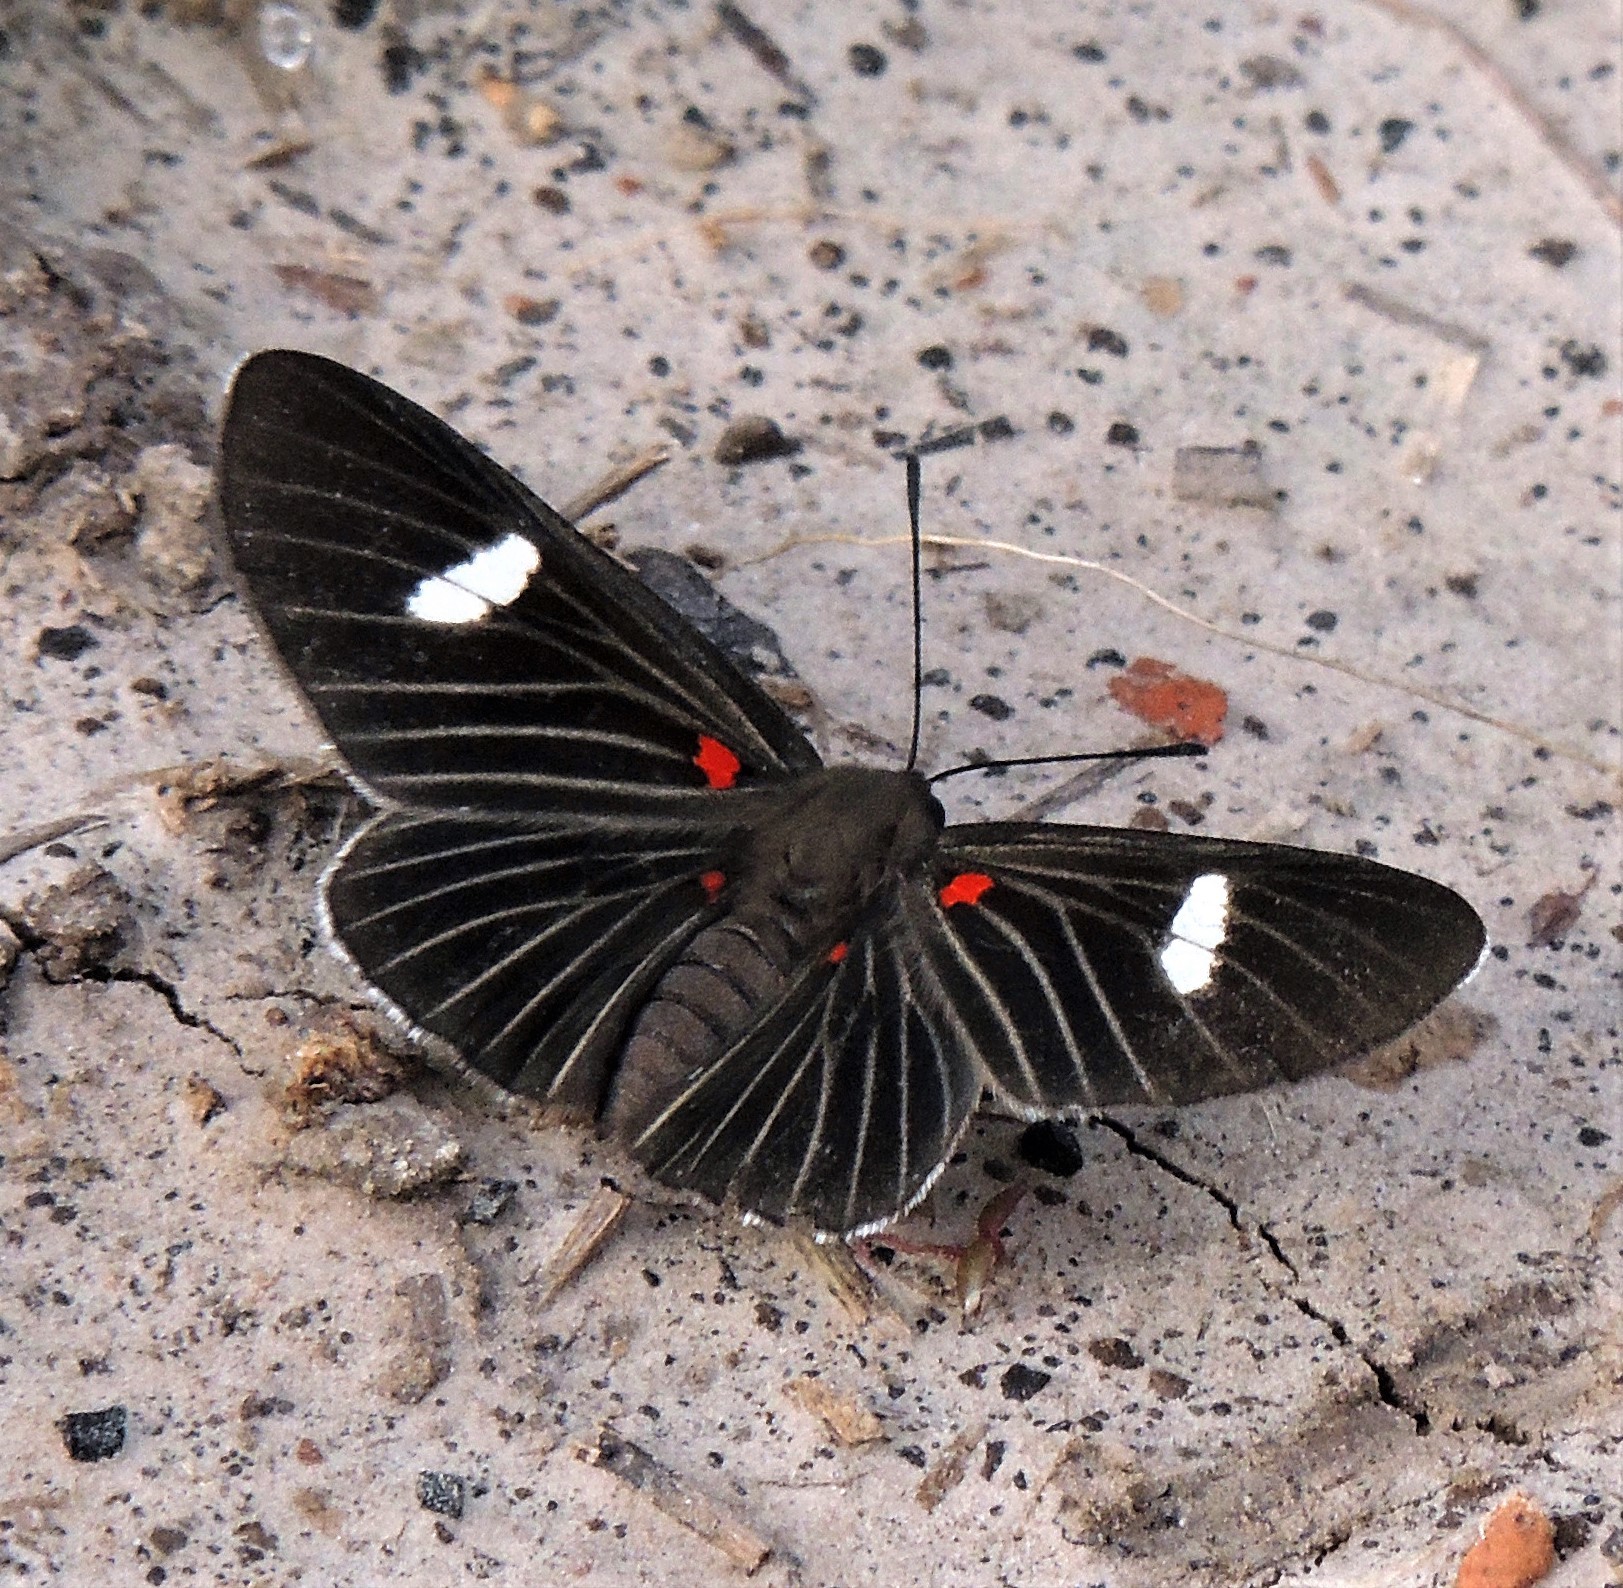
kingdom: Animalia
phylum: Arthropoda
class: Insecta
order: Lepidoptera
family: Lycaenidae
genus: Melanis
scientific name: Melanis aegates
